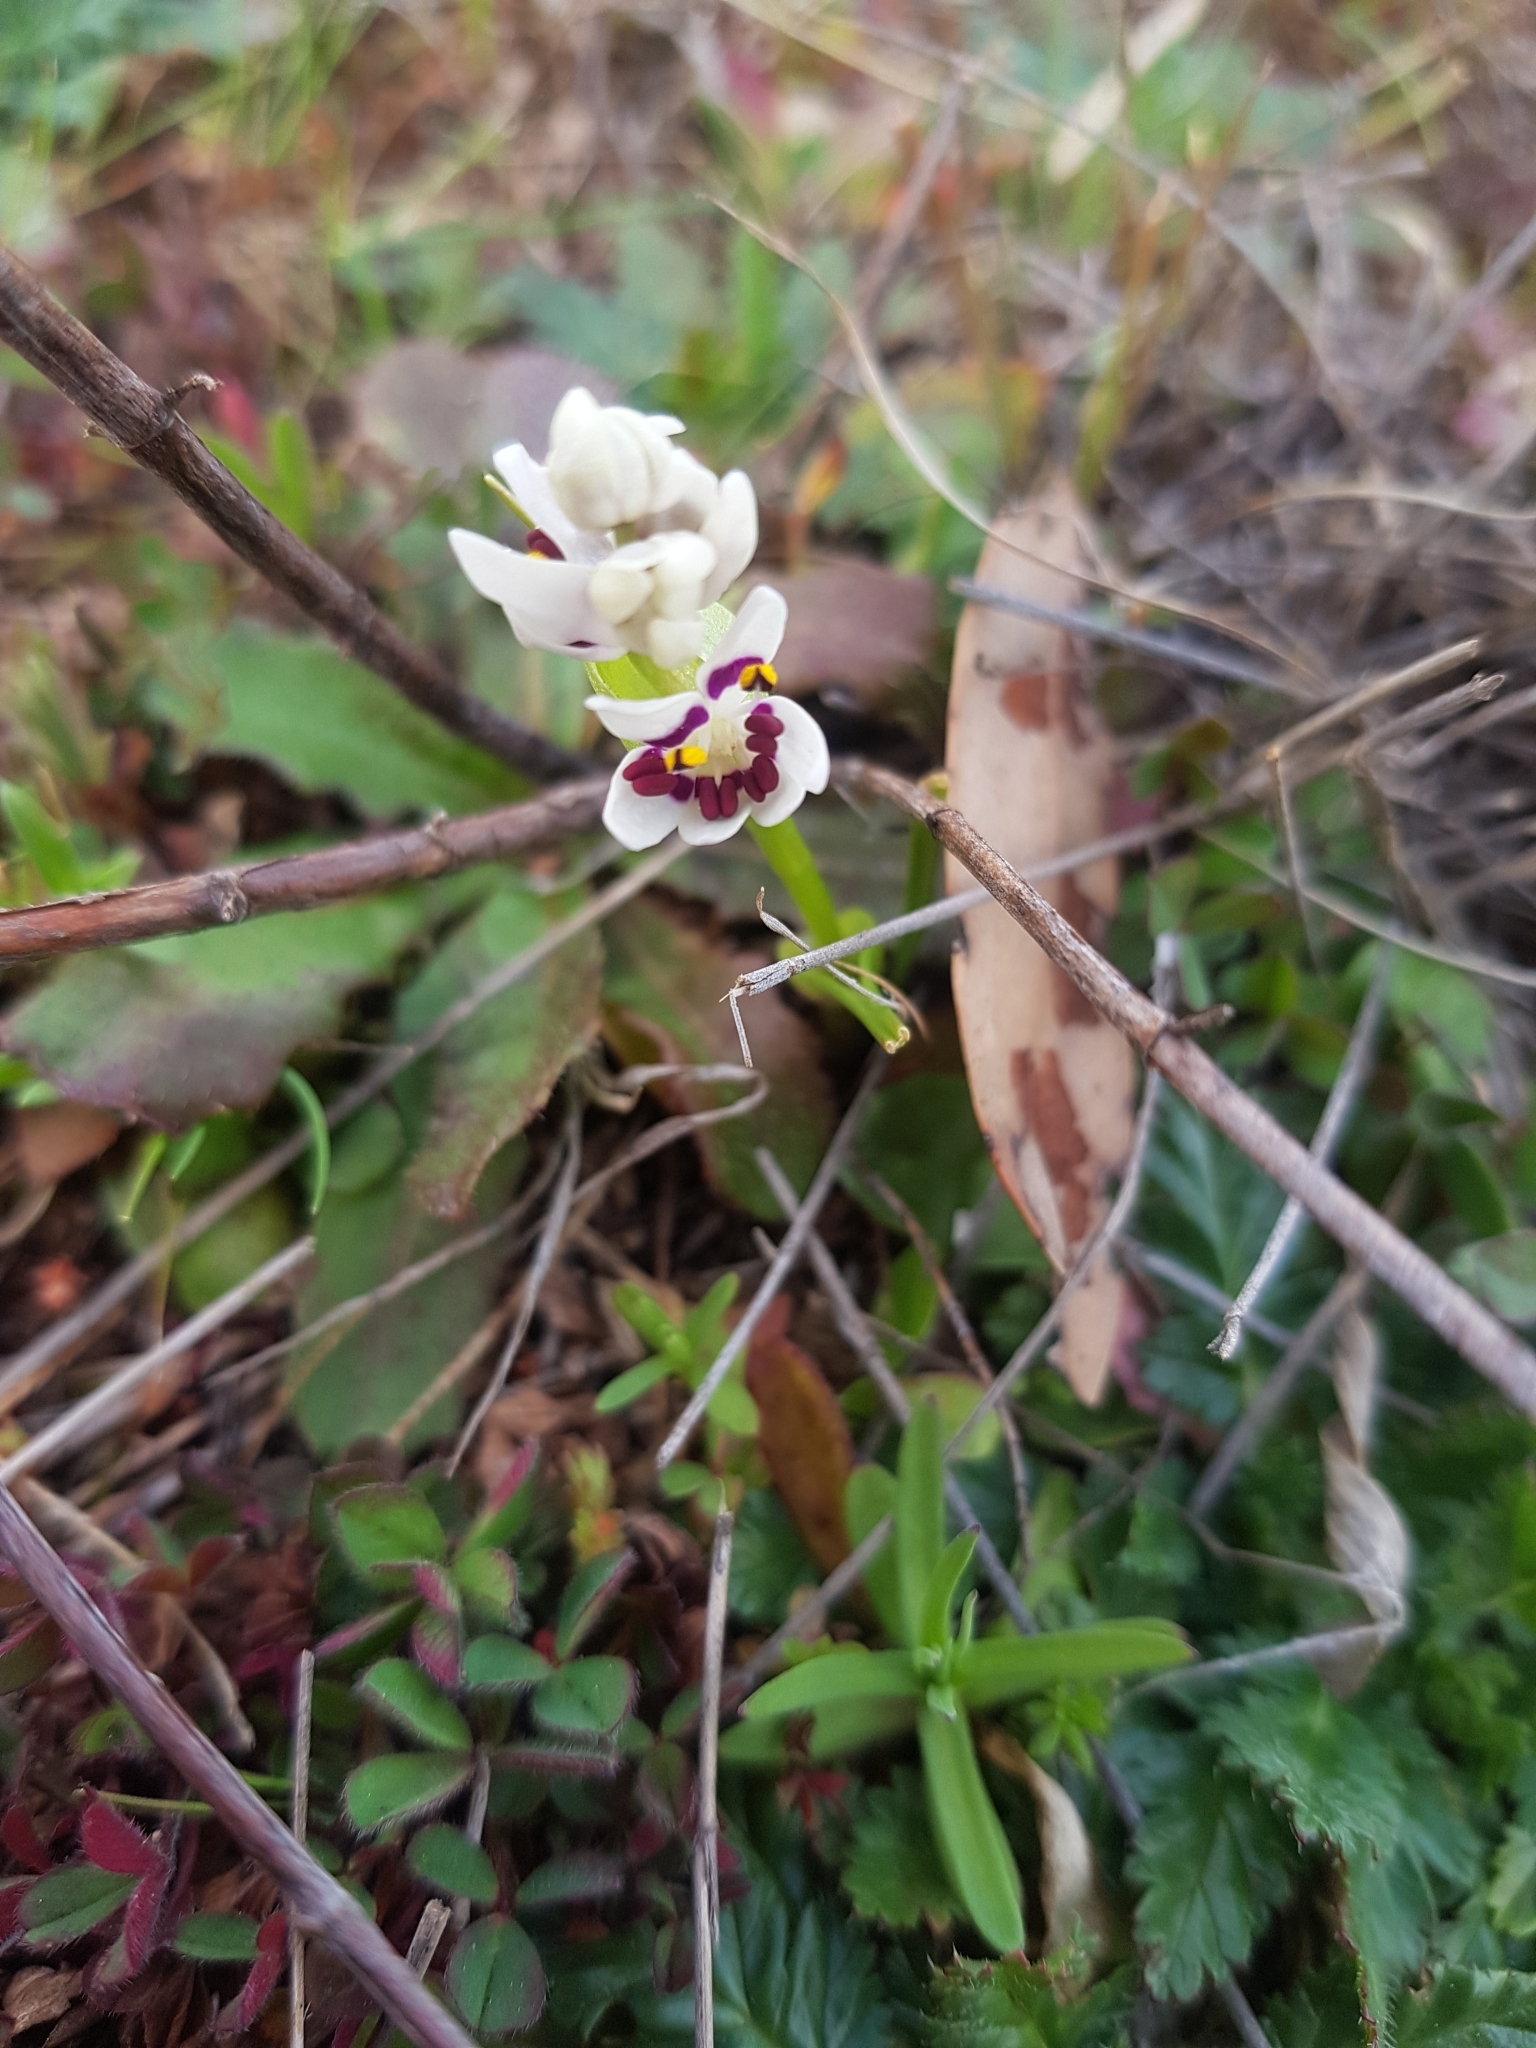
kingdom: Plantae
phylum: Tracheophyta
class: Liliopsida
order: Liliales
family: Colchicaceae
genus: Wurmbea
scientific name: Wurmbea dioica
